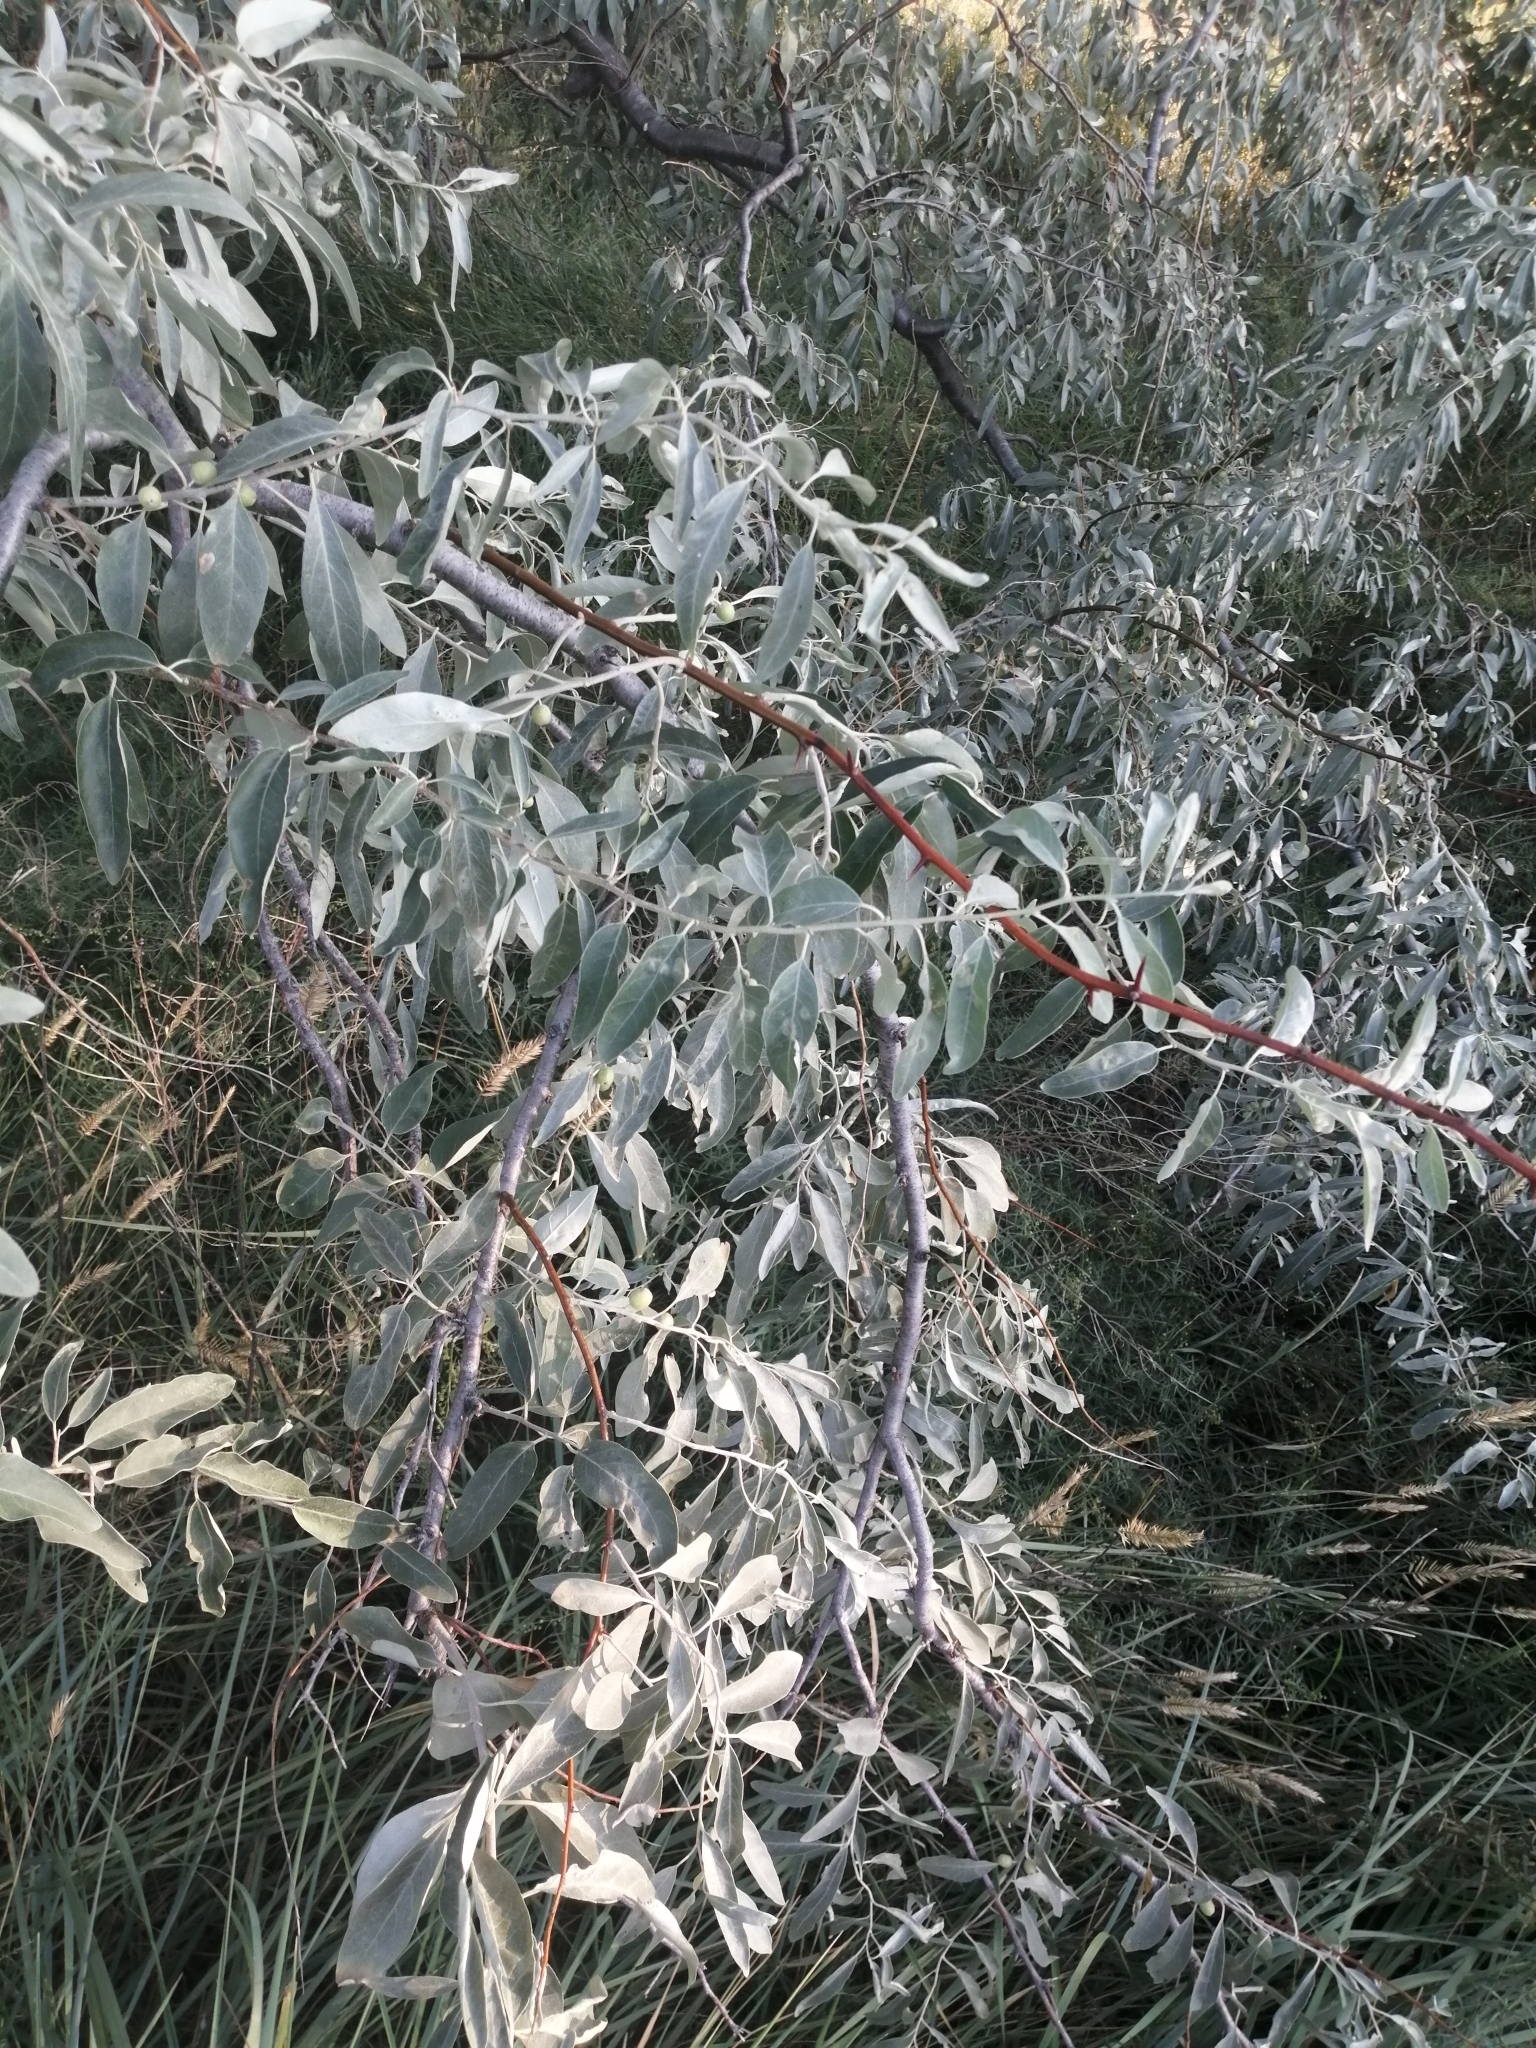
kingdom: Plantae
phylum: Tracheophyta
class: Magnoliopsida
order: Rosales
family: Elaeagnaceae
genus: Elaeagnus
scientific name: Elaeagnus angustifolia
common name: Russian olive
